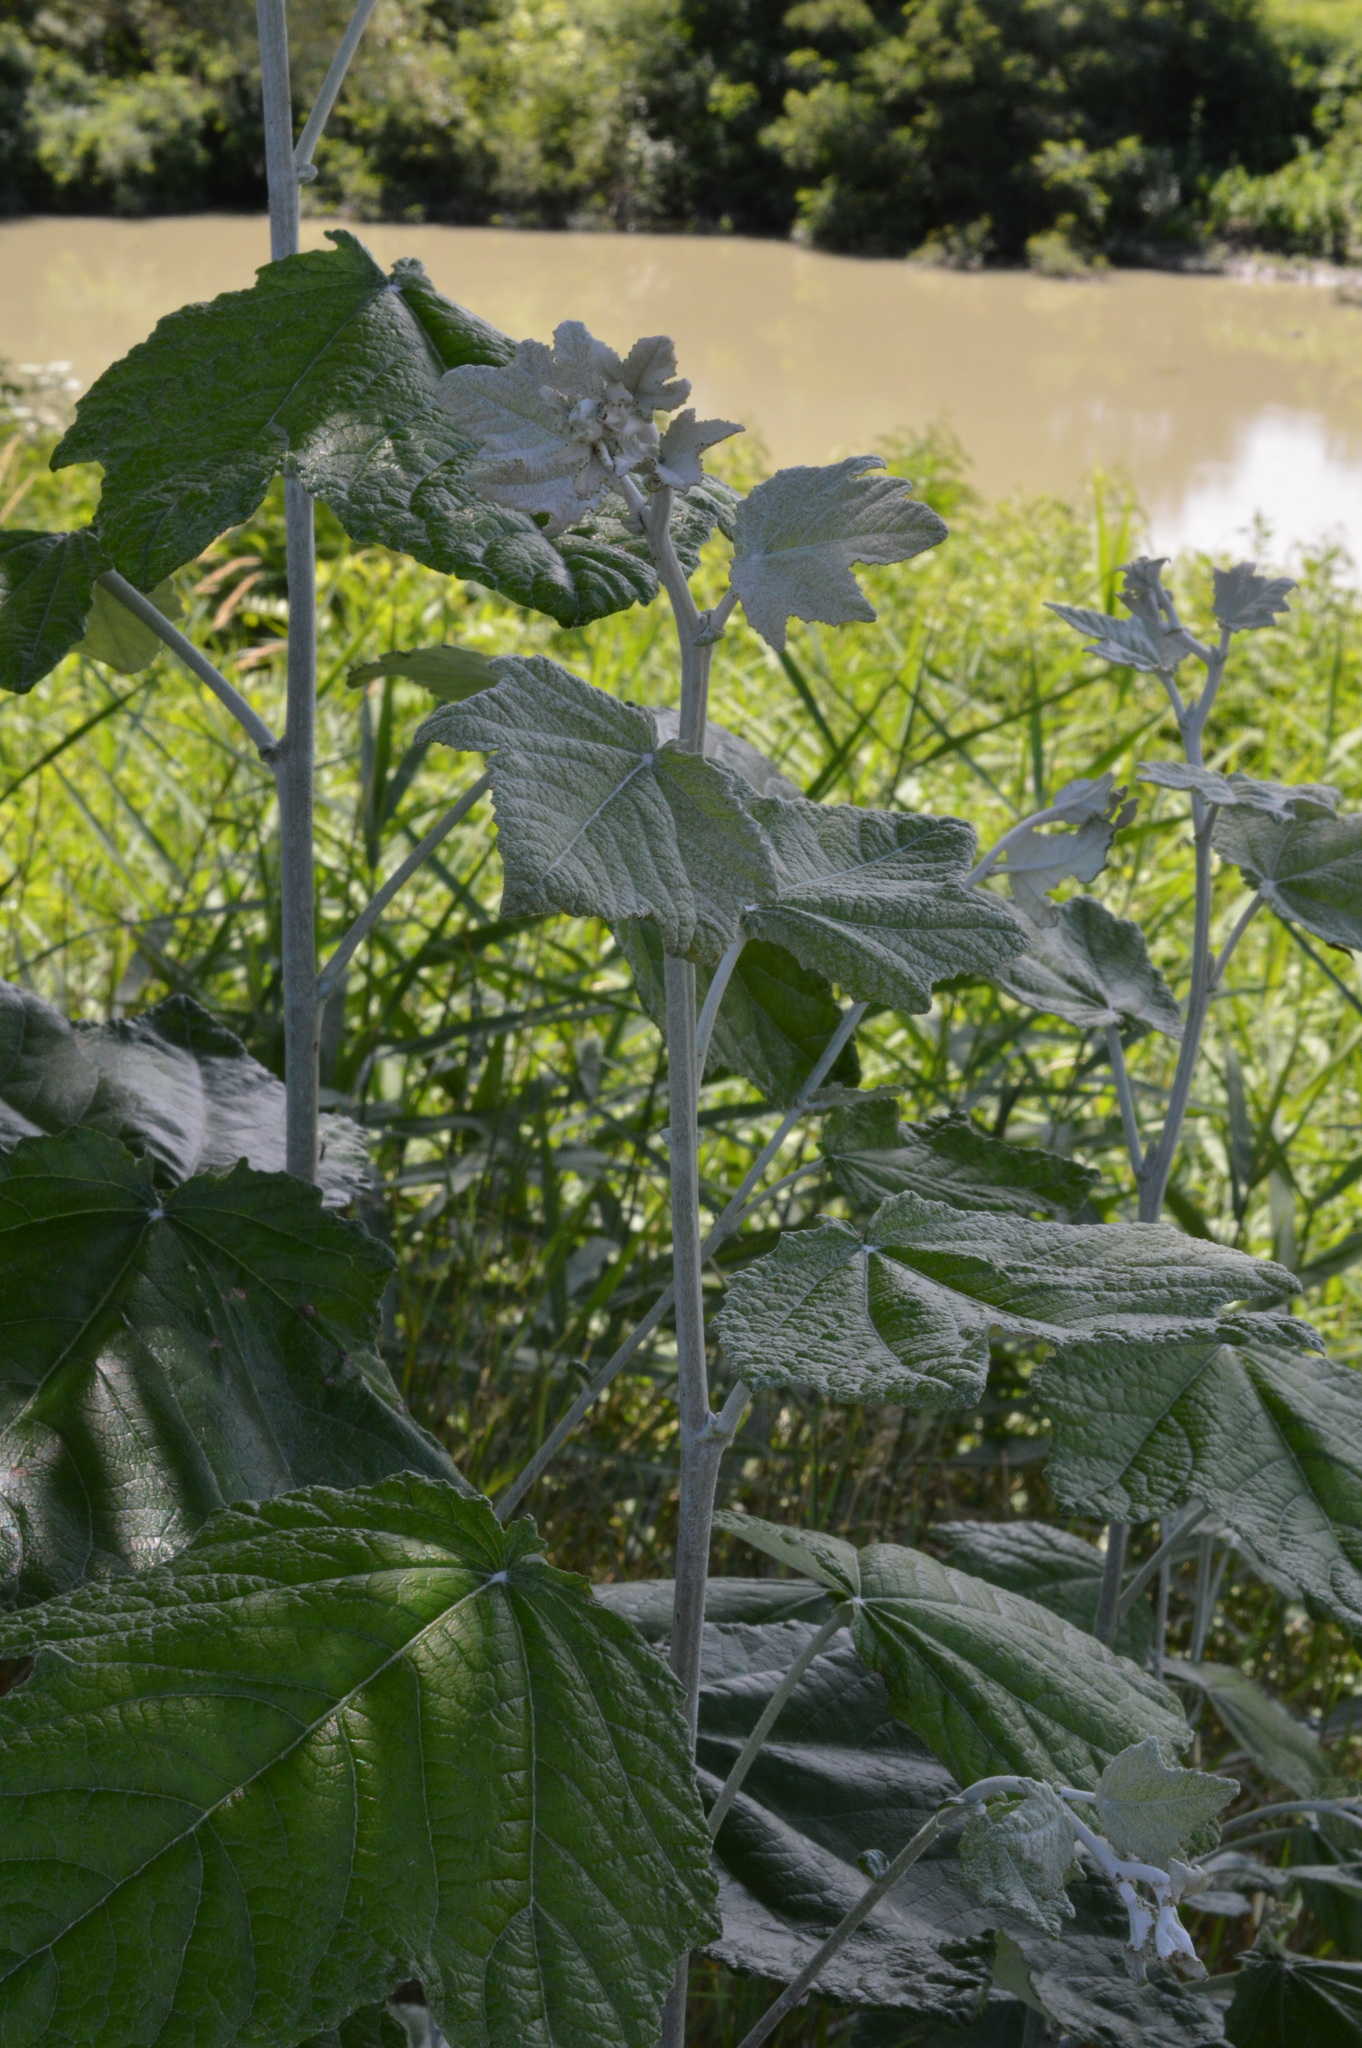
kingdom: Plantae
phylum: Tracheophyta
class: Magnoliopsida
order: Malpighiales
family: Salicaceae
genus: Populus
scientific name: Populus alba
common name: White poplar
